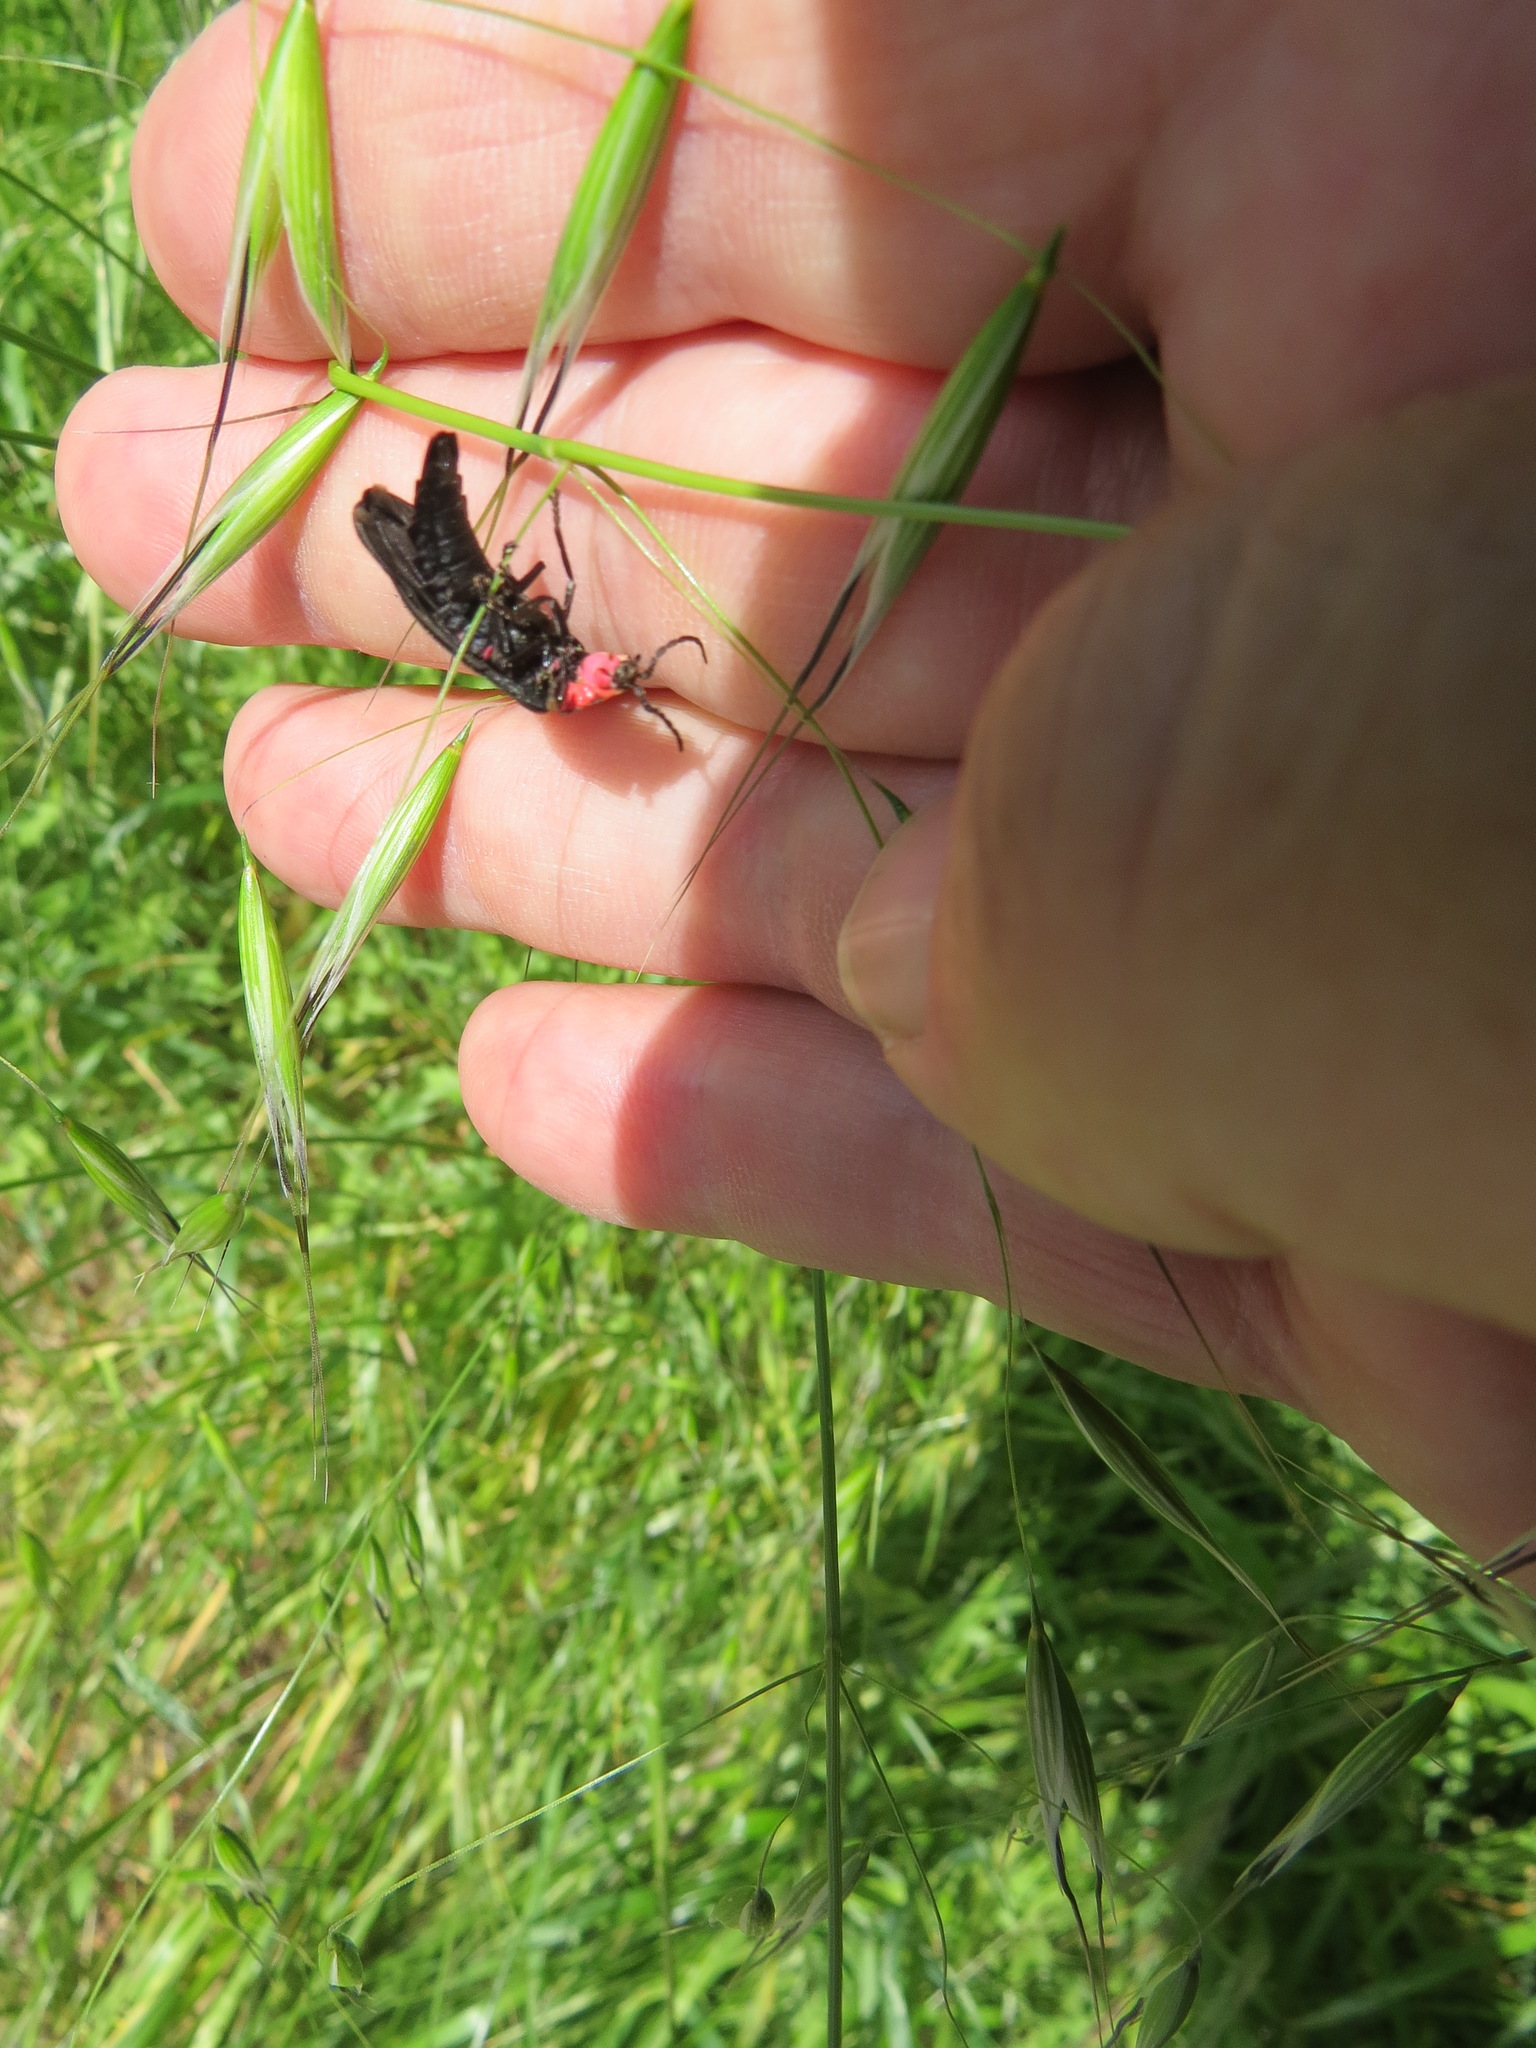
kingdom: Animalia
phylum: Arthropoda
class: Insecta
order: Coleoptera
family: Lampyridae
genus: Ellychnia
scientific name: Ellychnia megista
